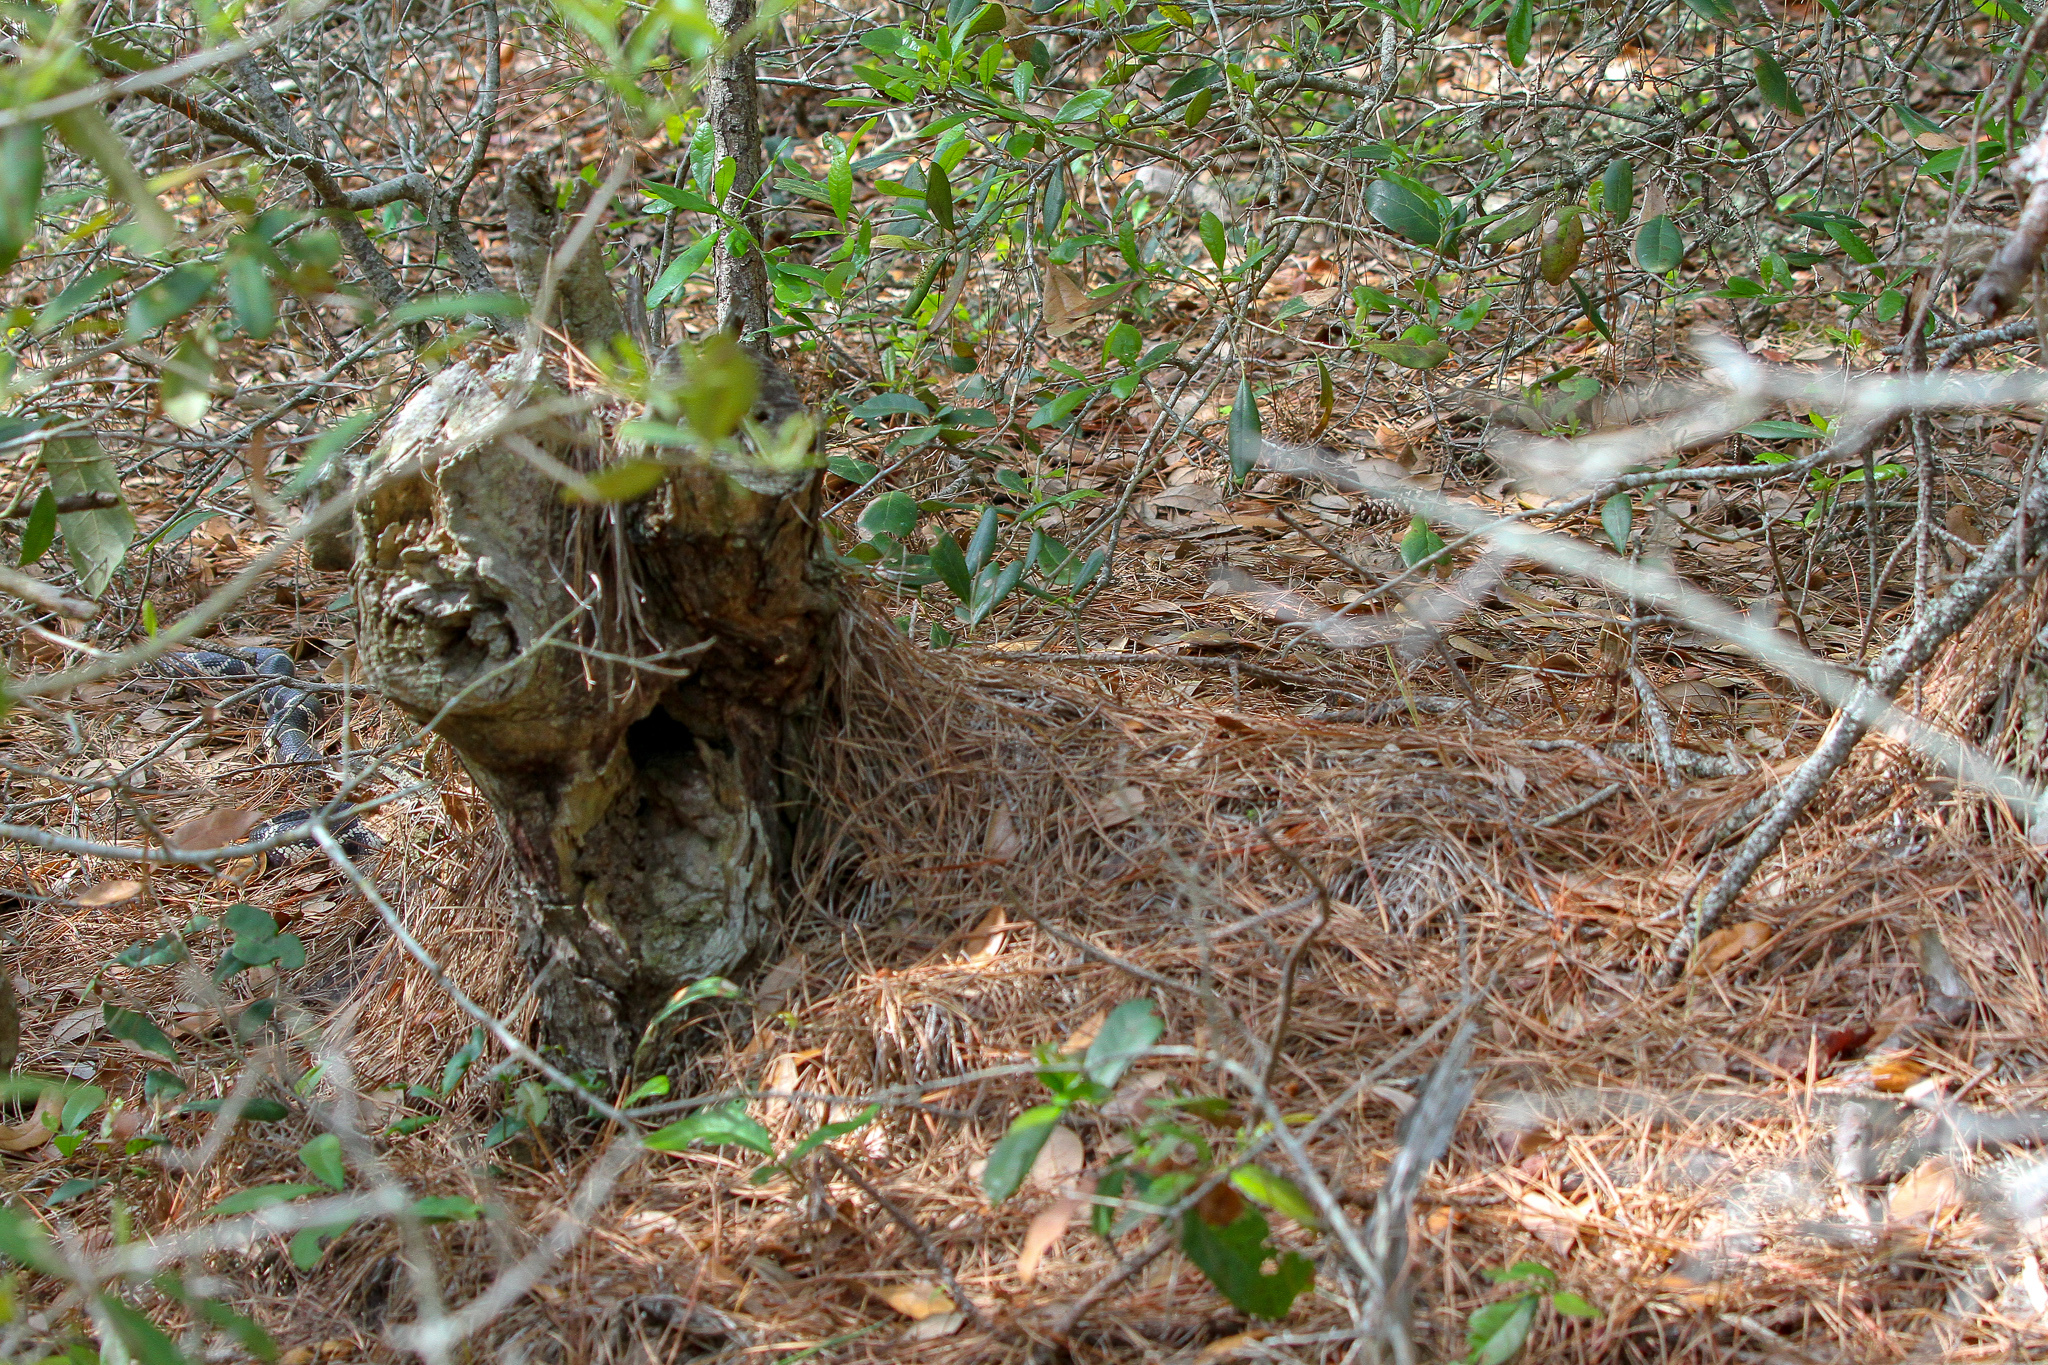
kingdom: Animalia
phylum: Chordata
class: Squamata
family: Colubridae
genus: Lampropeltis
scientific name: Lampropeltis getula
